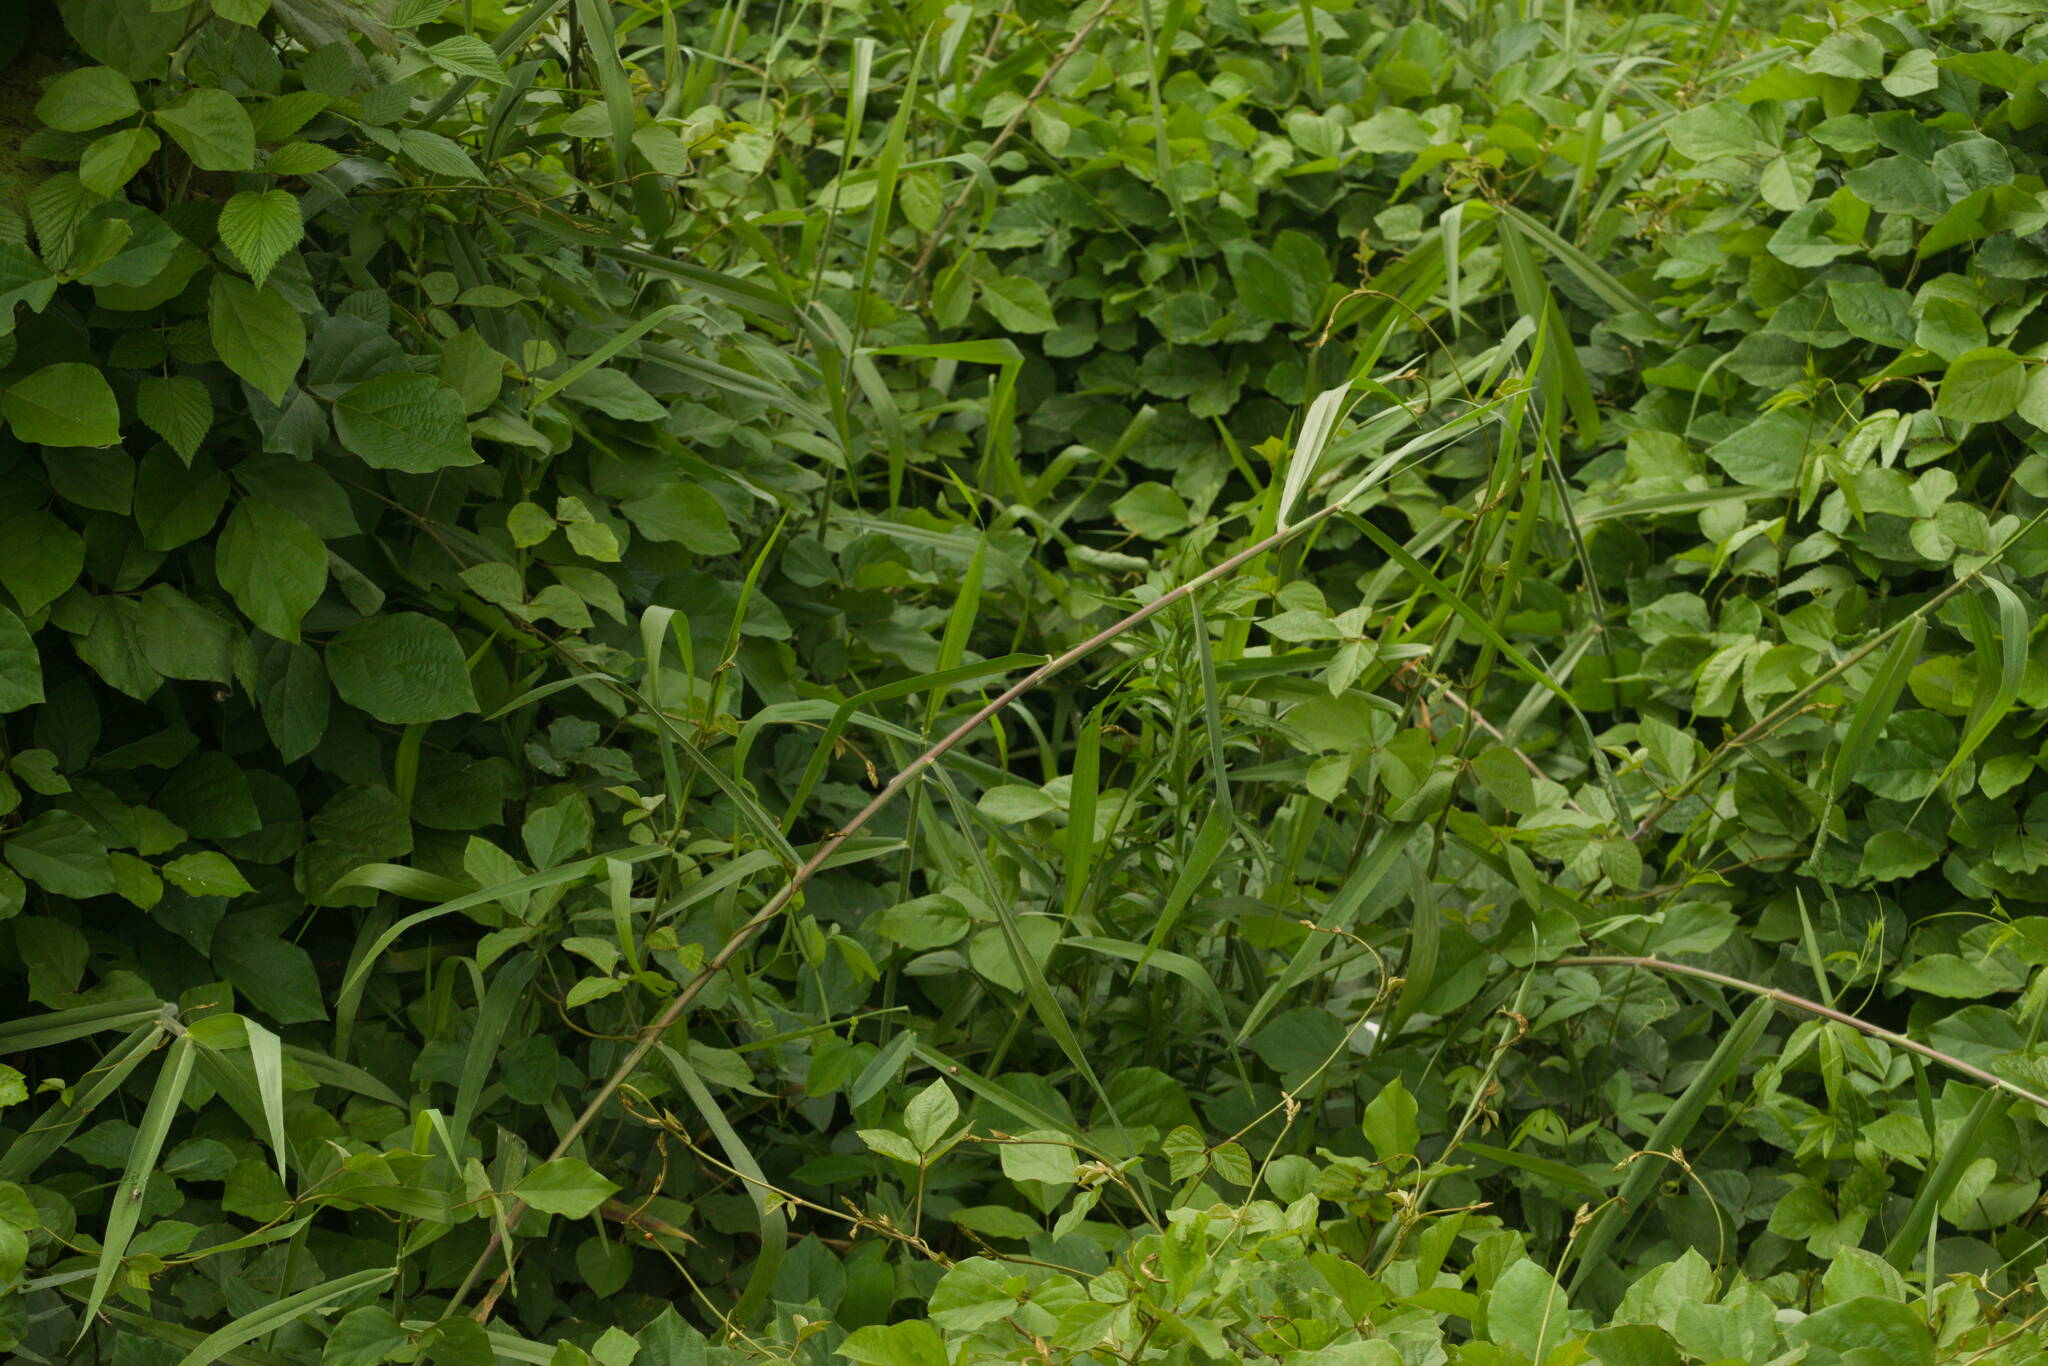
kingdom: Plantae
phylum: Tracheophyta
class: Liliopsida
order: Poales
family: Poaceae
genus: Urochloa
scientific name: Urochloa mutica
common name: Para grass
